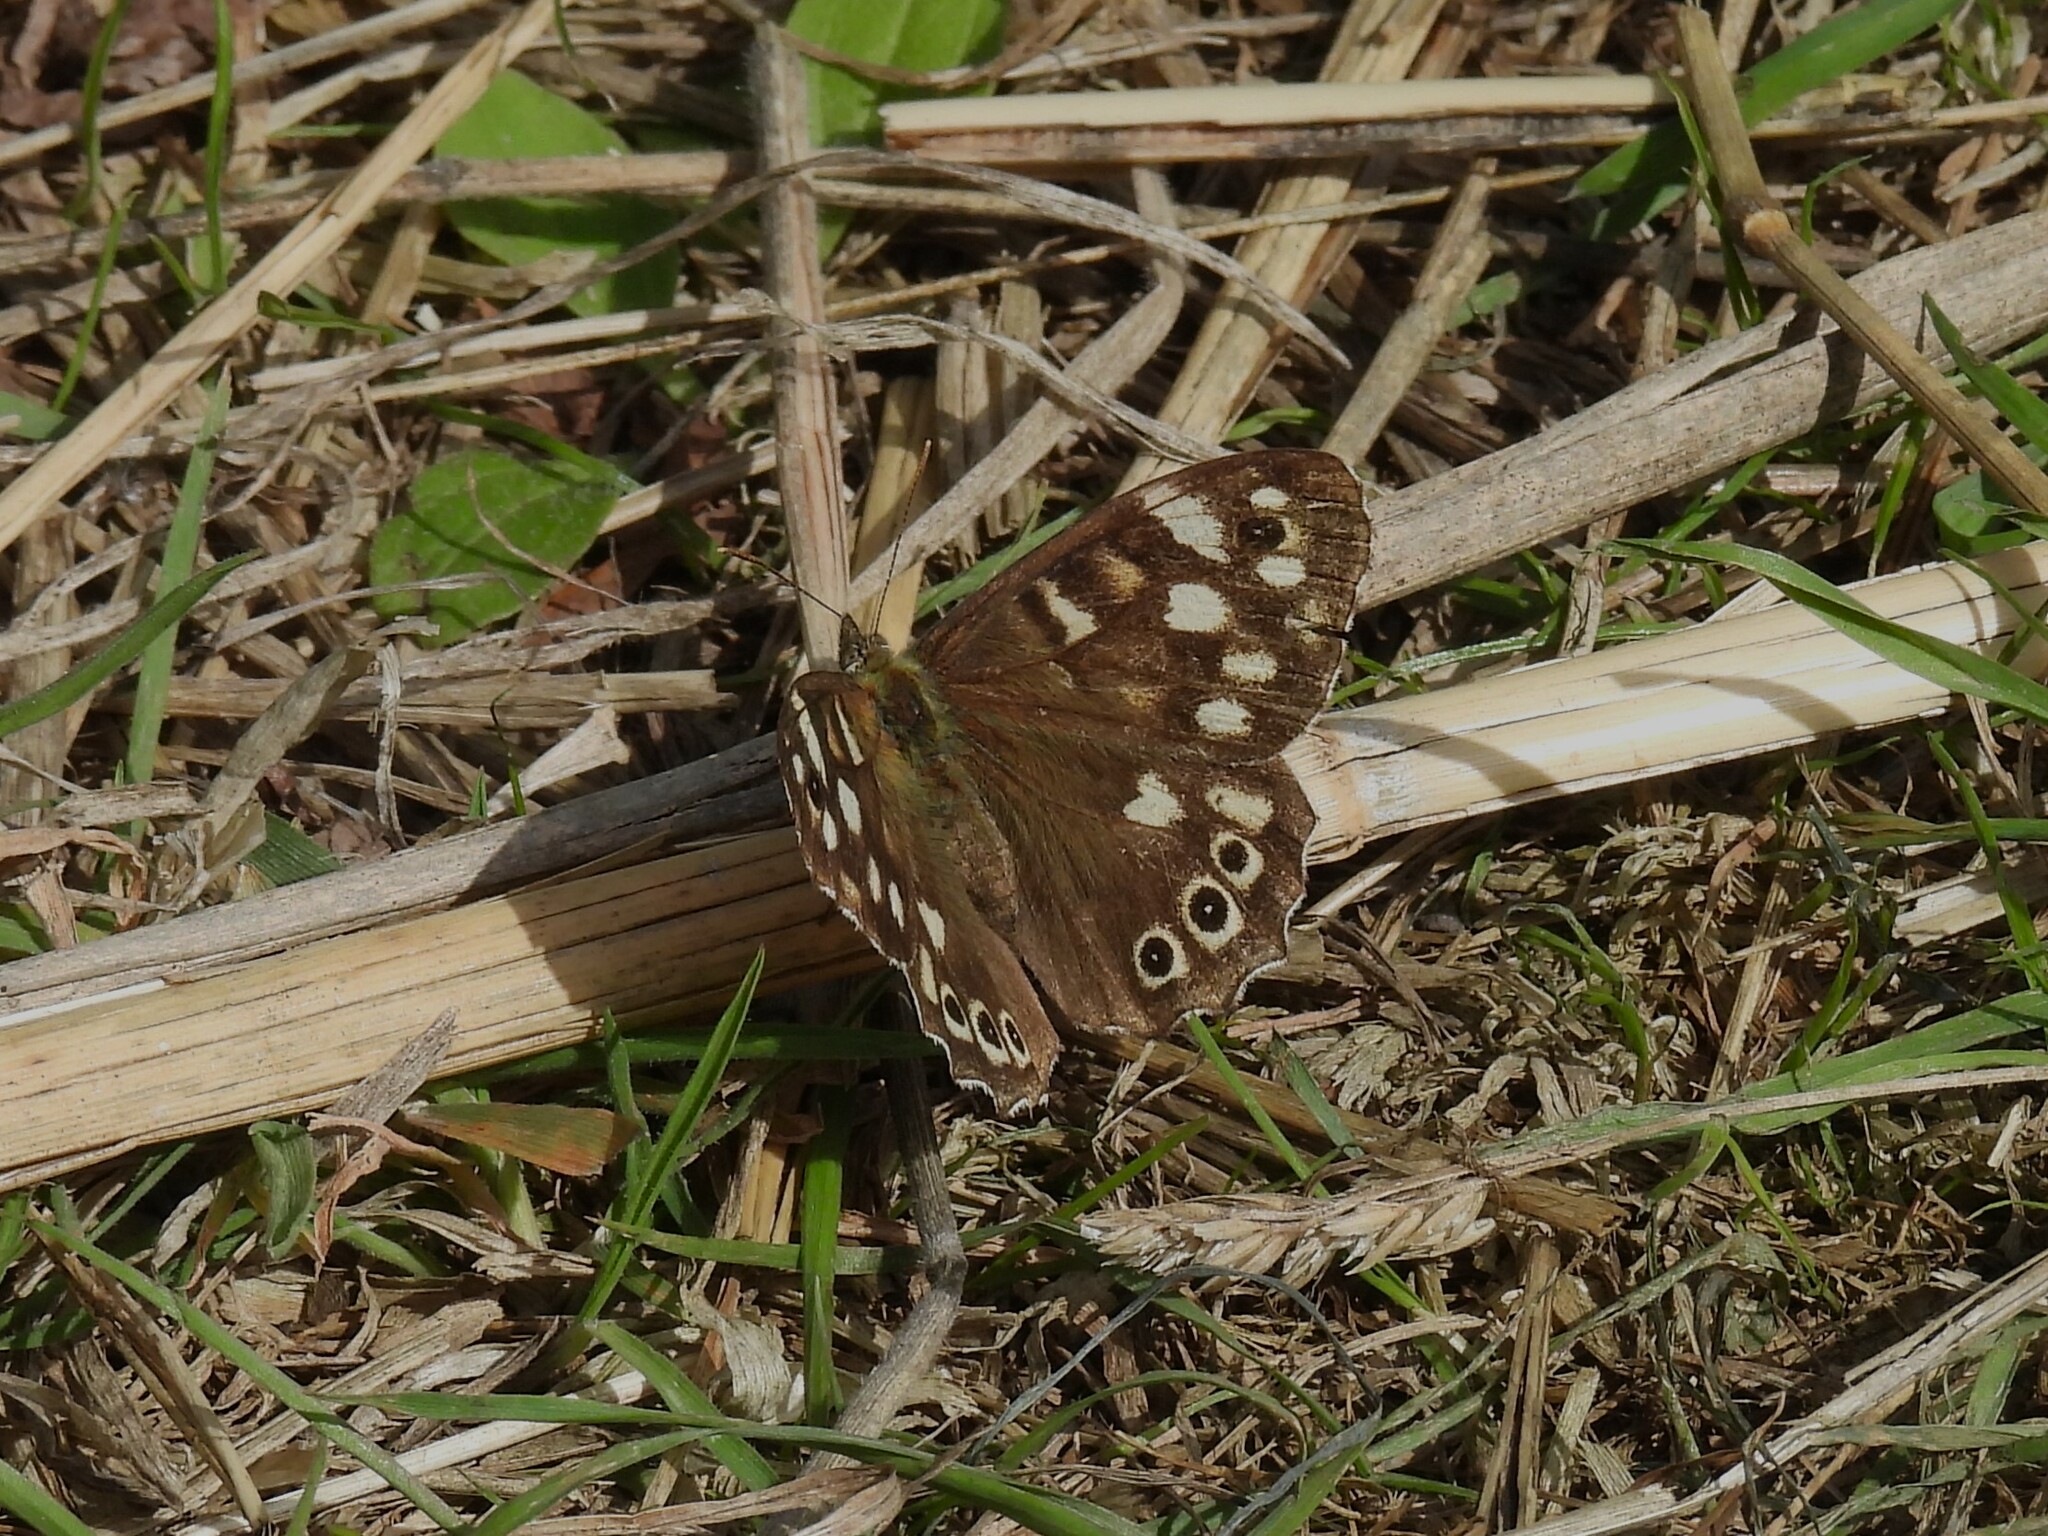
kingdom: Animalia
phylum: Arthropoda
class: Insecta
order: Lepidoptera
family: Nymphalidae
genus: Pararge
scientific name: Pararge aegeria
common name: Speckled wood
